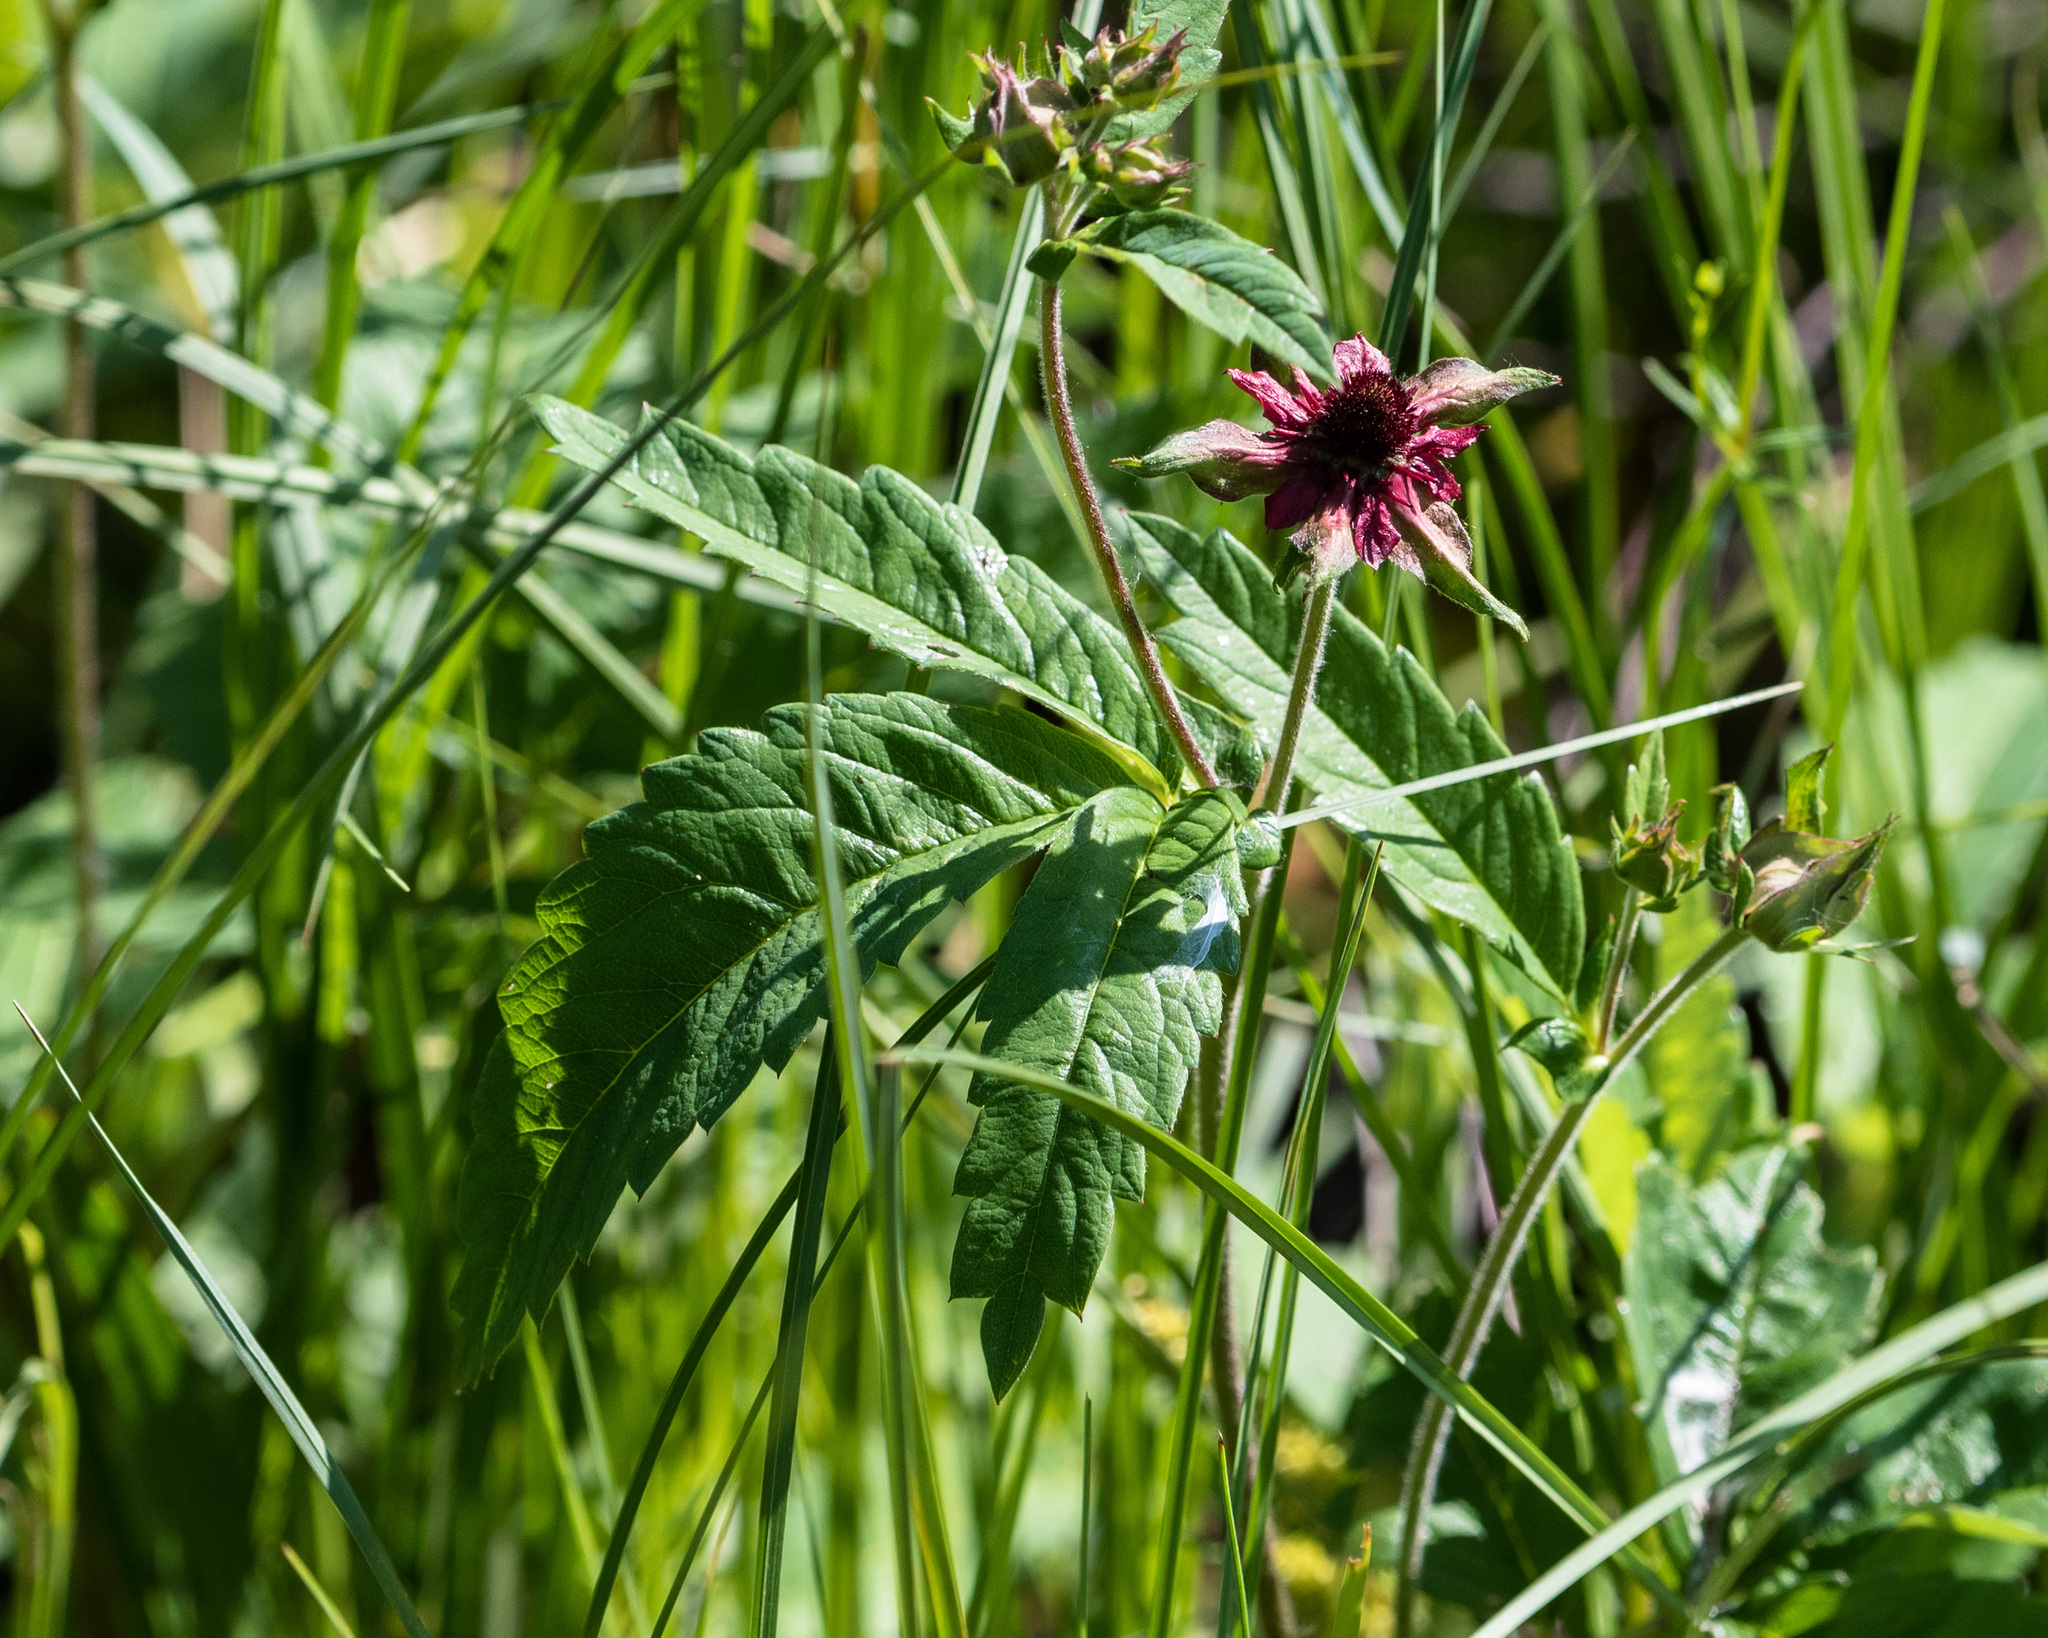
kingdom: Plantae
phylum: Tracheophyta
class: Magnoliopsida
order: Rosales
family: Rosaceae
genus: Comarum
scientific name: Comarum palustre
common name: Marsh cinquefoil
